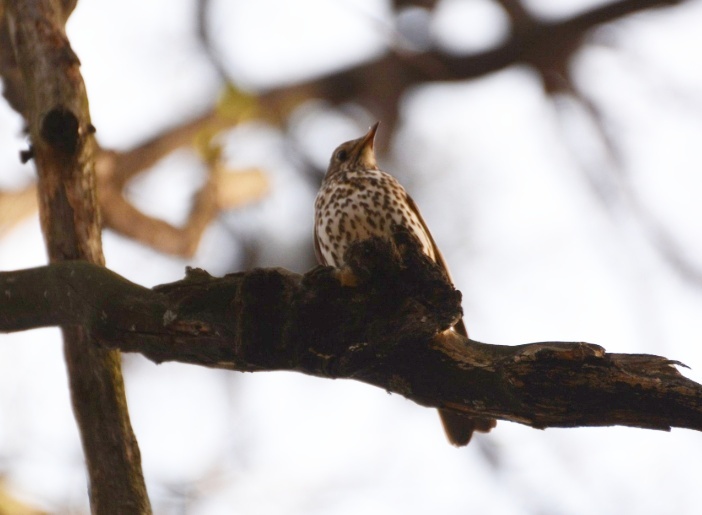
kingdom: Animalia
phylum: Chordata
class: Aves
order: Passeriformes
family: Turdidae
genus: Turdus
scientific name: Turdus philomelos
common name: Song thrush
